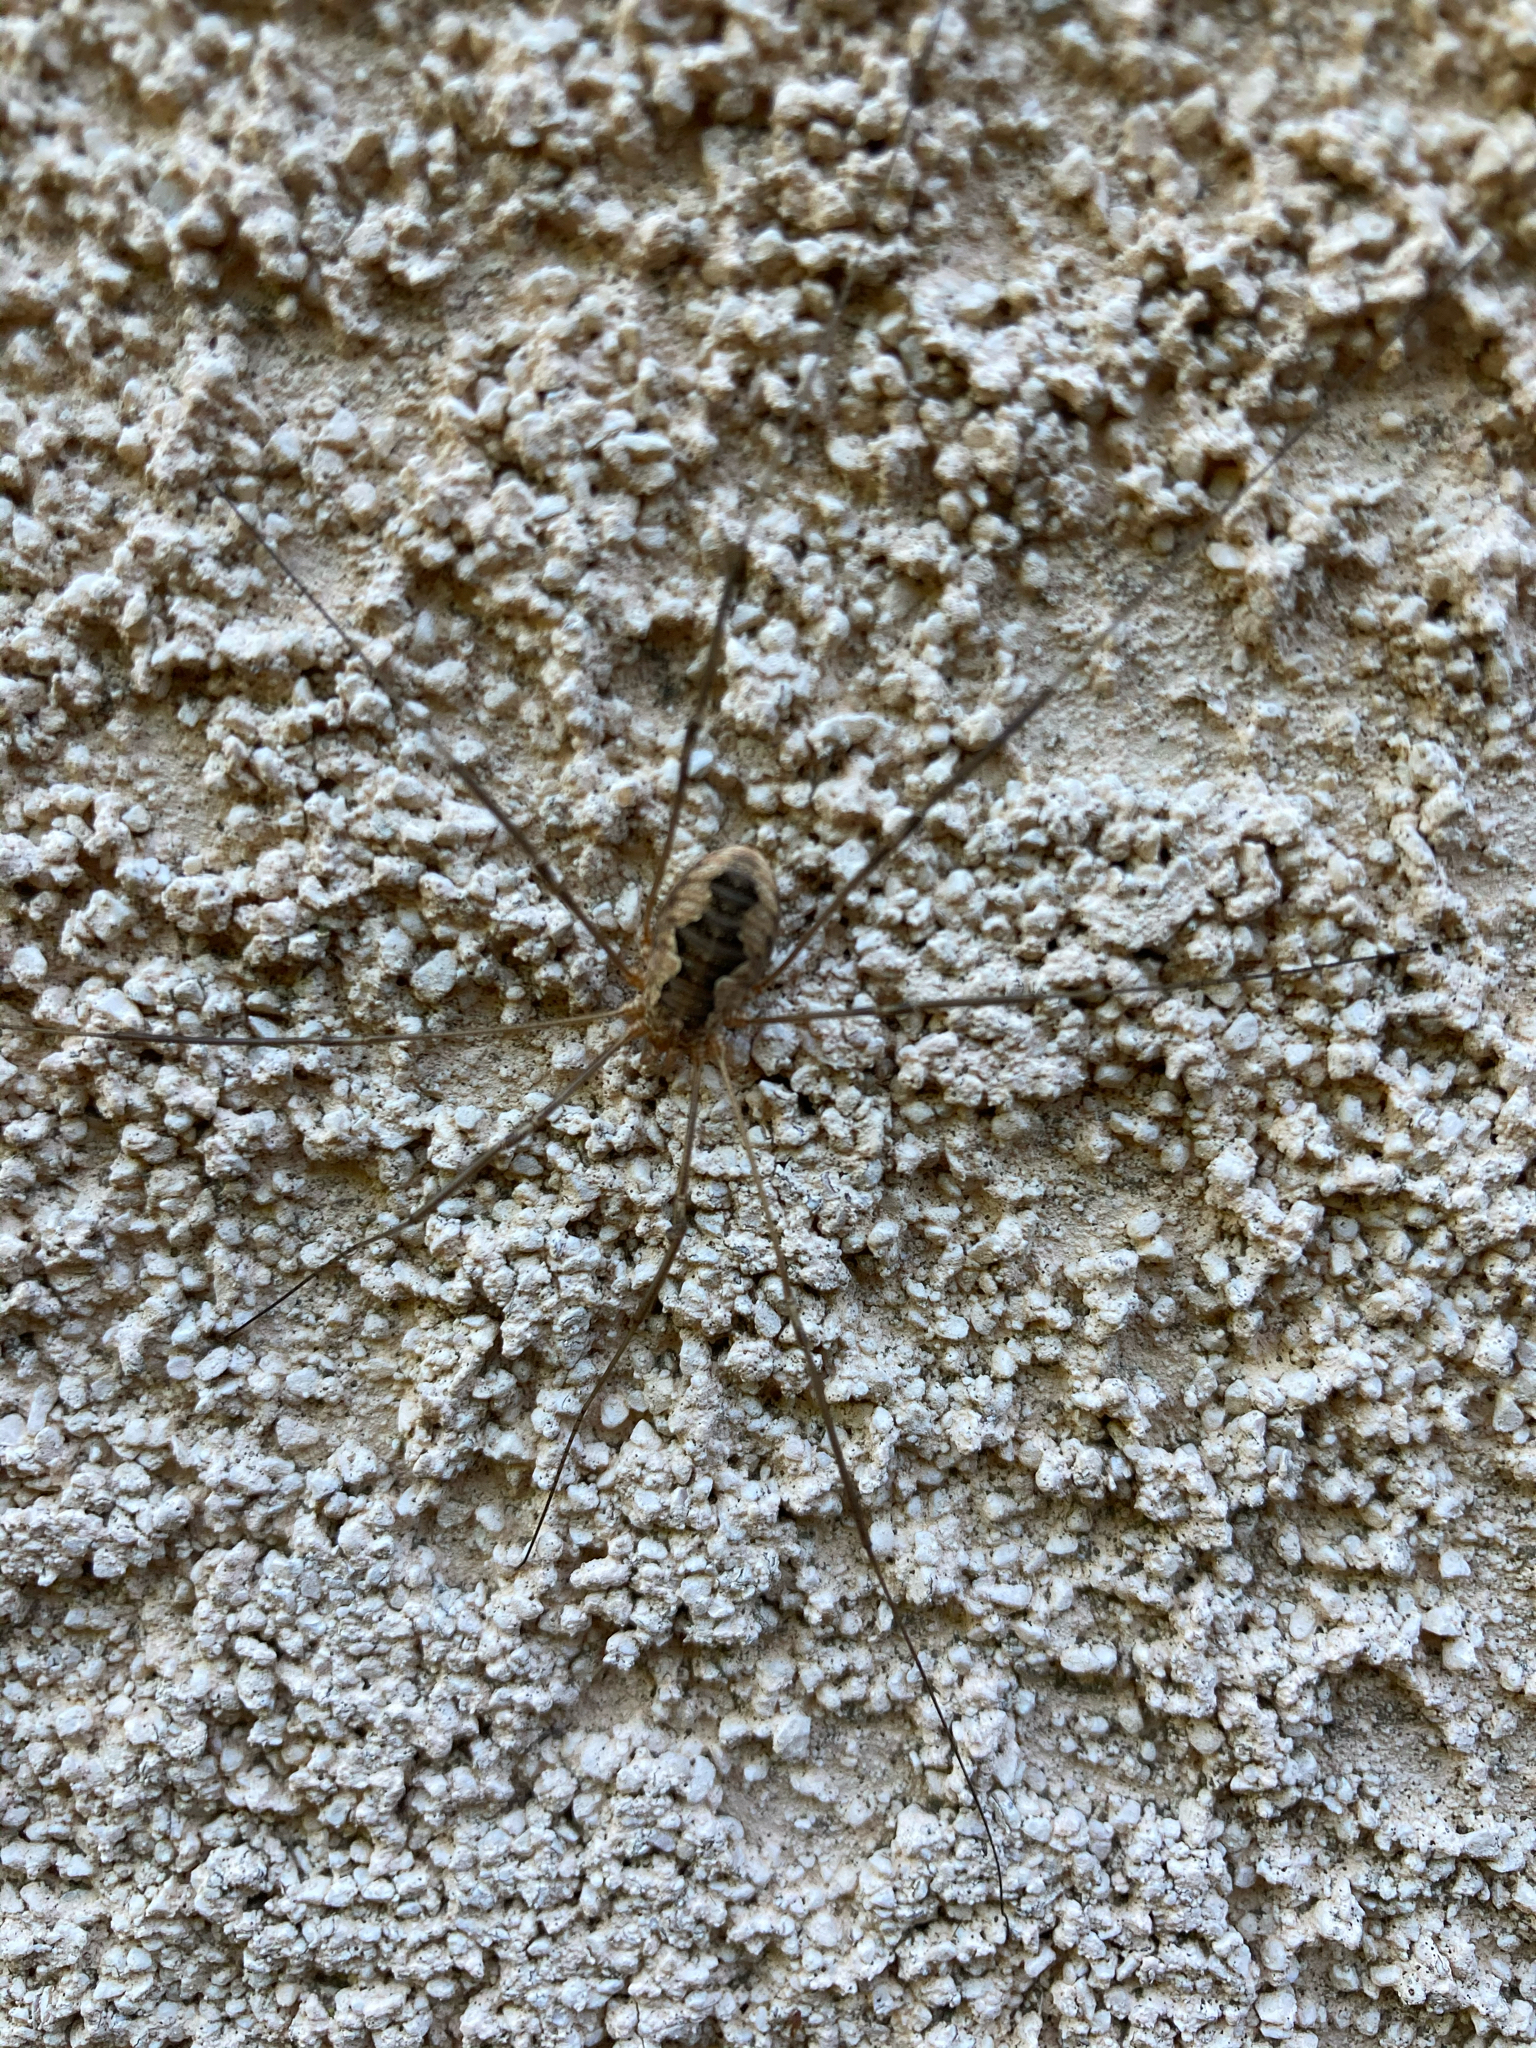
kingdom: Animalia
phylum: Arthropoda
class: Arachnida
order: Opiliones
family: Phalangiidae
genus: Phalangium
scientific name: Phalangium opilio
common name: Daddy longleg
